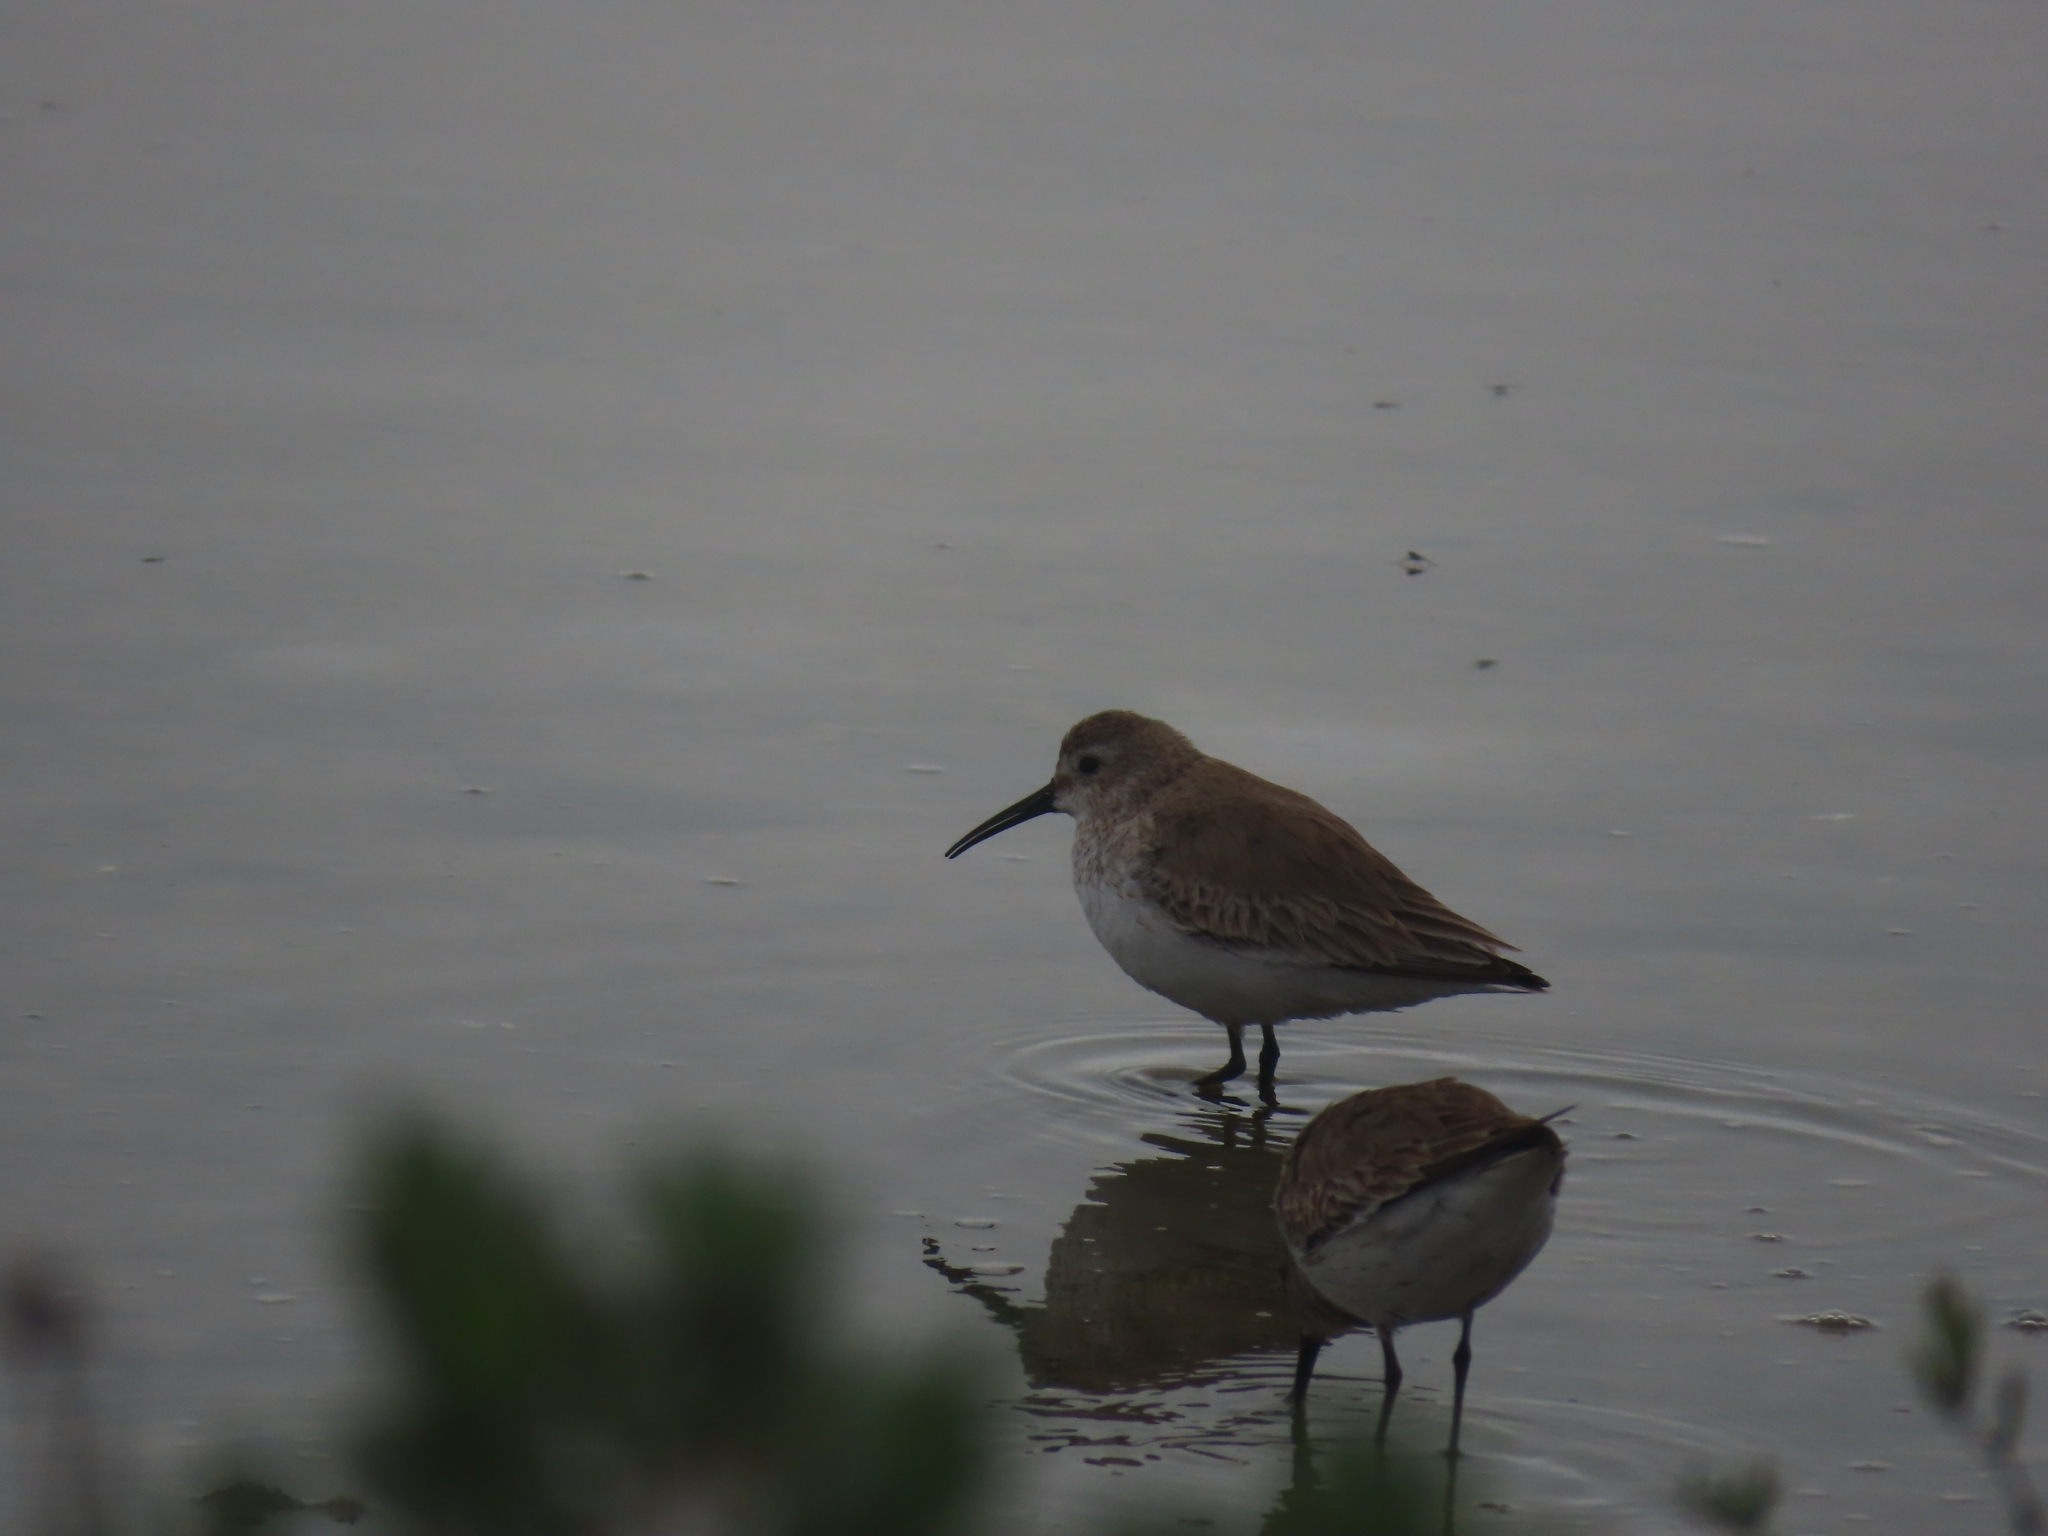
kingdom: Animalia
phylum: Chordata
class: Aves
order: Charadriiformes
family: Scolopacidae
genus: Calidris
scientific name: Calidris alpina
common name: Dunlin
